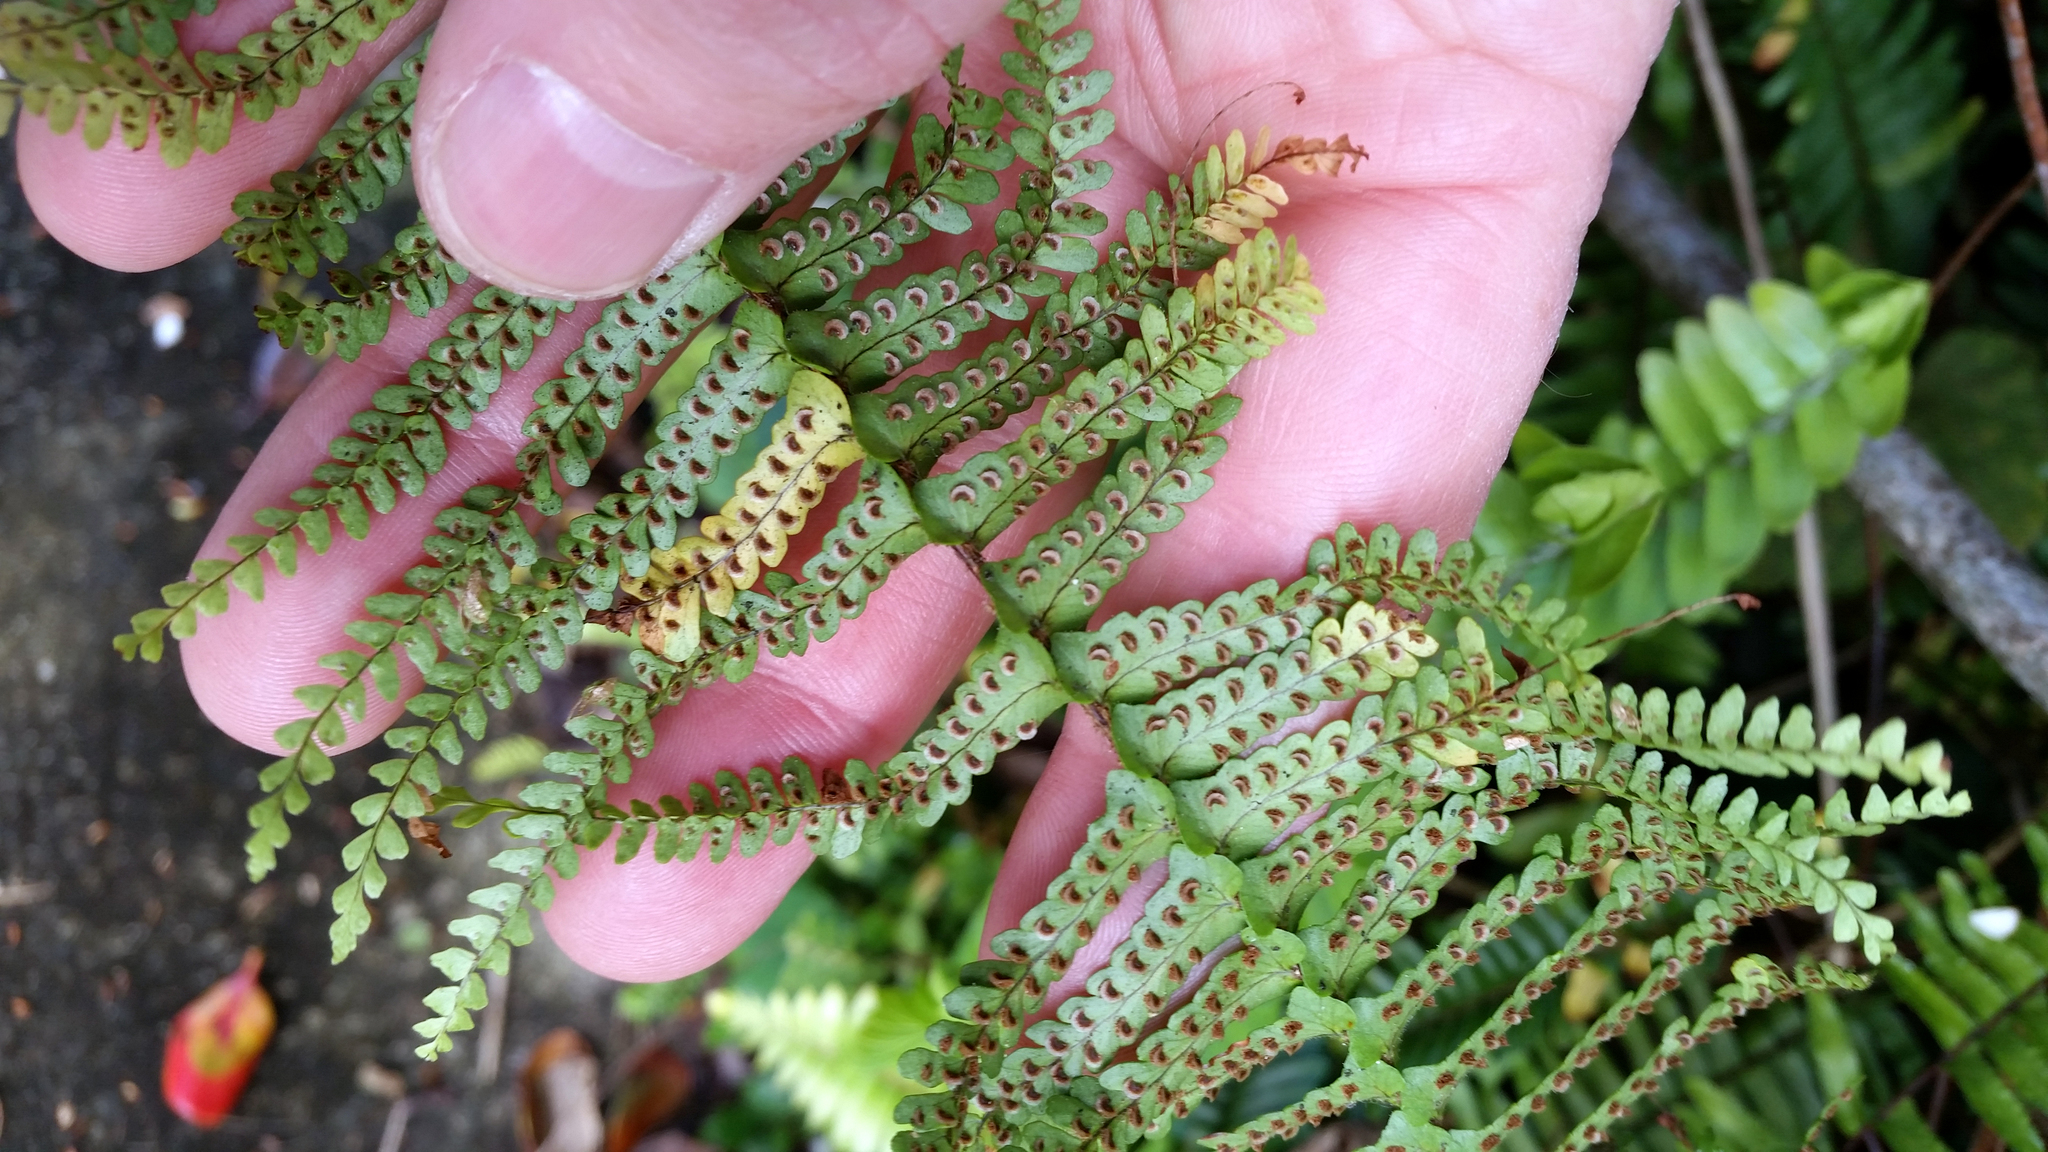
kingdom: Plantae
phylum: Tracheophyta
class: Polypodiopsida
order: Polypodiales
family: Nephrolepidaceae
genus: Nephrolepis
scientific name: Nephrolepis cordifolia
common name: Narrow swordfern
